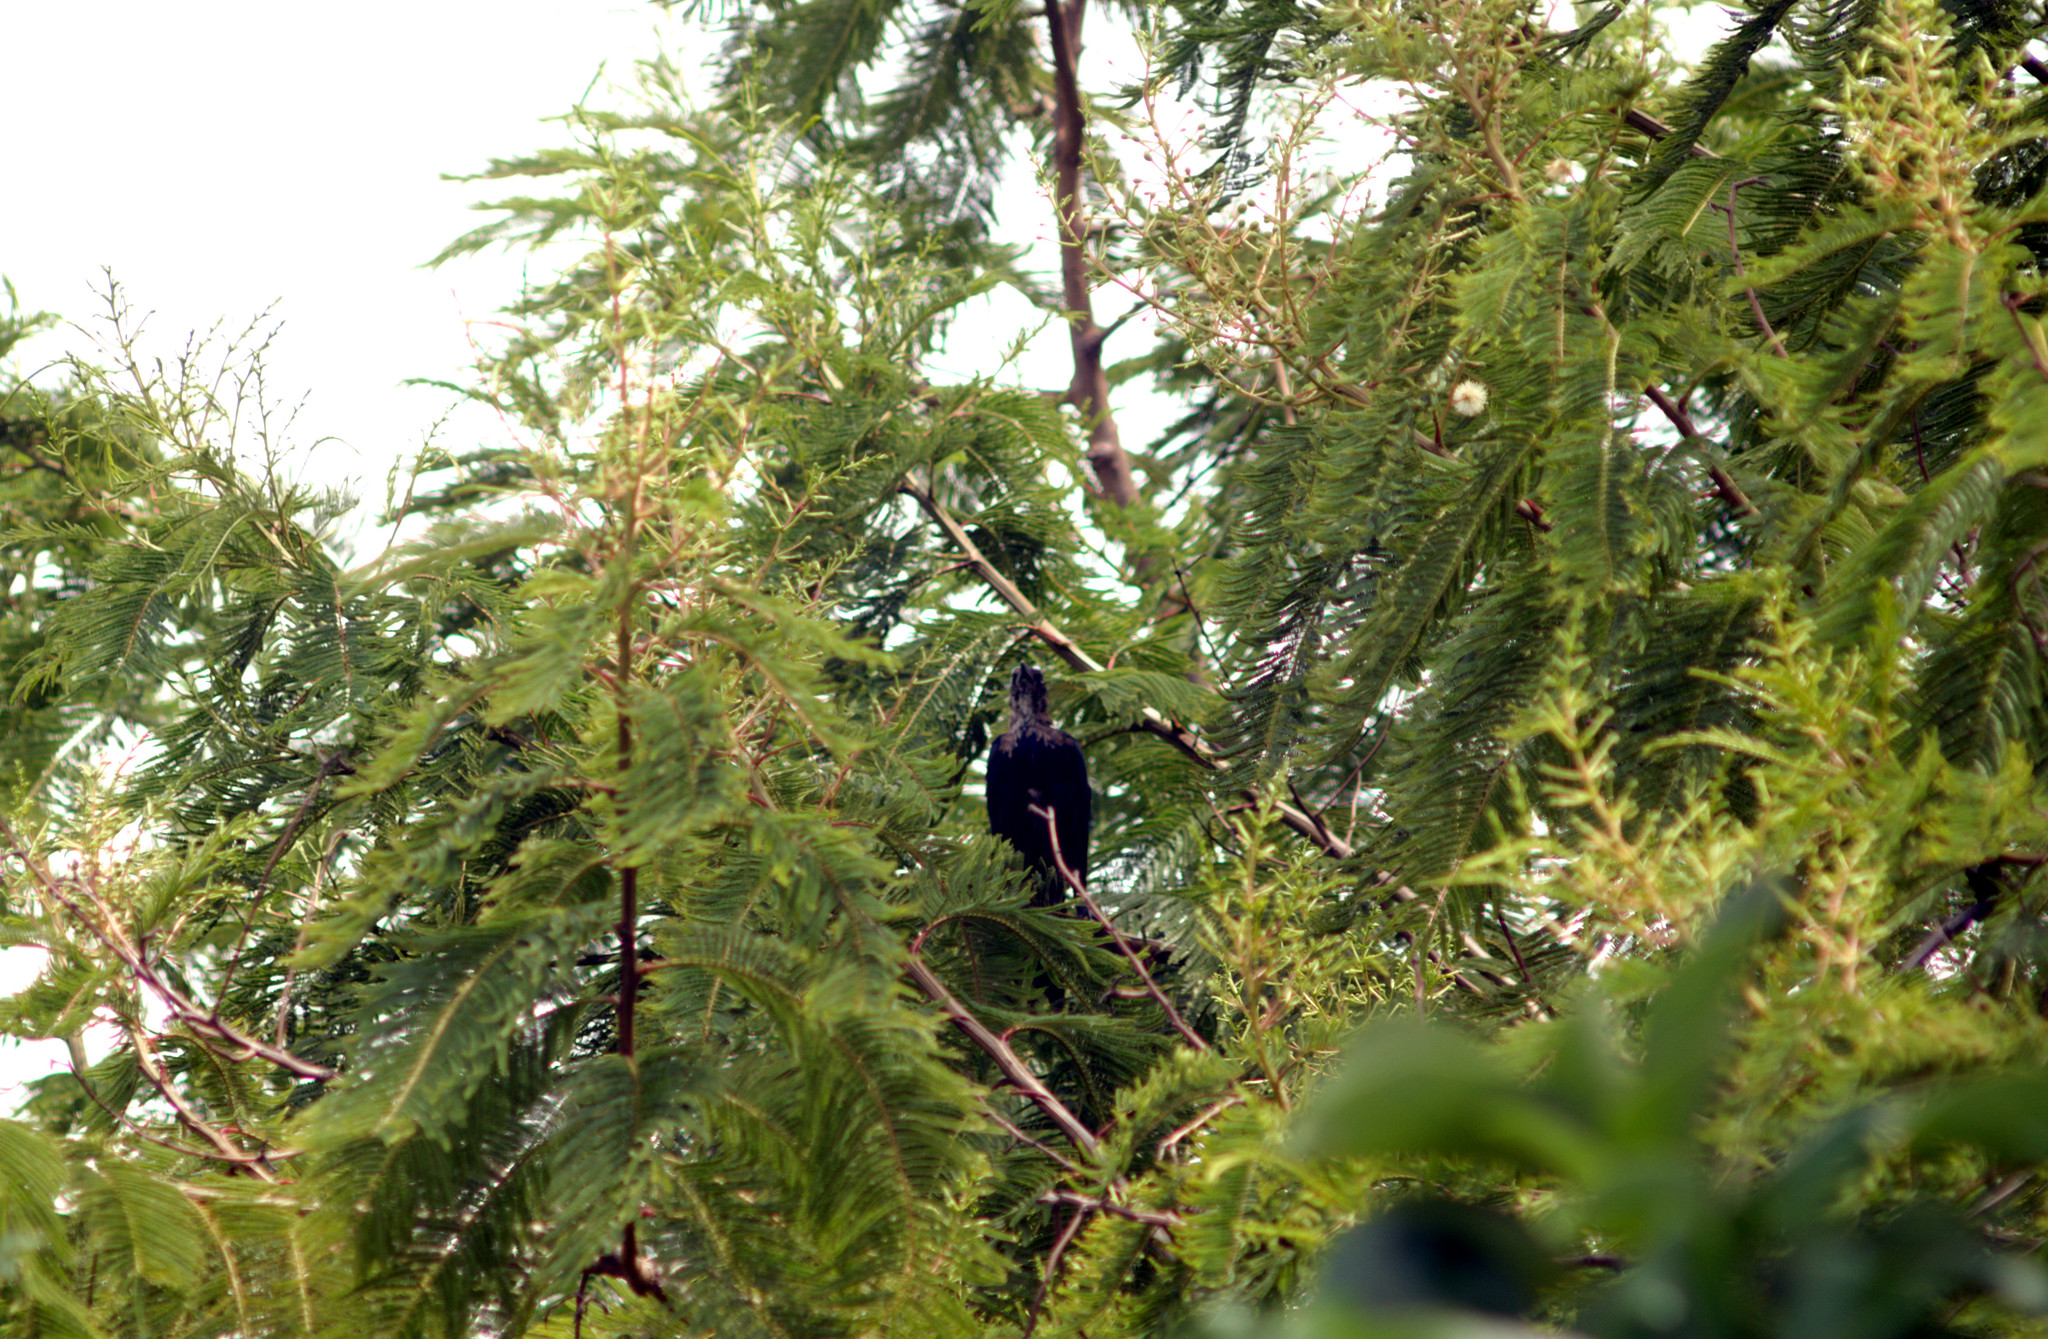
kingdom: Animalia
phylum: Chordata
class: Aves
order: Passeriformes
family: Icteridae
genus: Quiscalus
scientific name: Quiscalus mexicanus
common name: Great-tailed grackle
